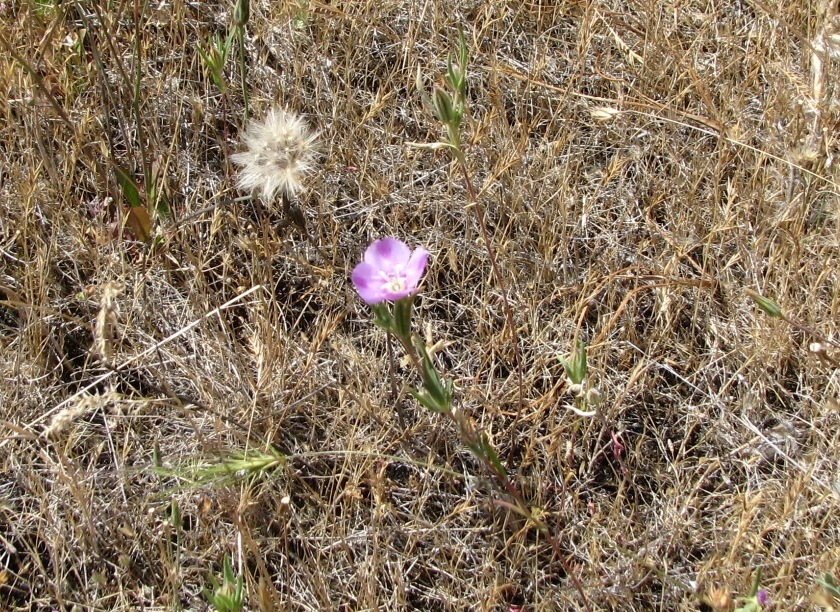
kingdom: Plantae
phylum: Tracheophyta
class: Magnoliopsida
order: Myrtales
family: Onagraceae
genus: Clarkia
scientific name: Clarkia purpurea
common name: Purple clarkia
